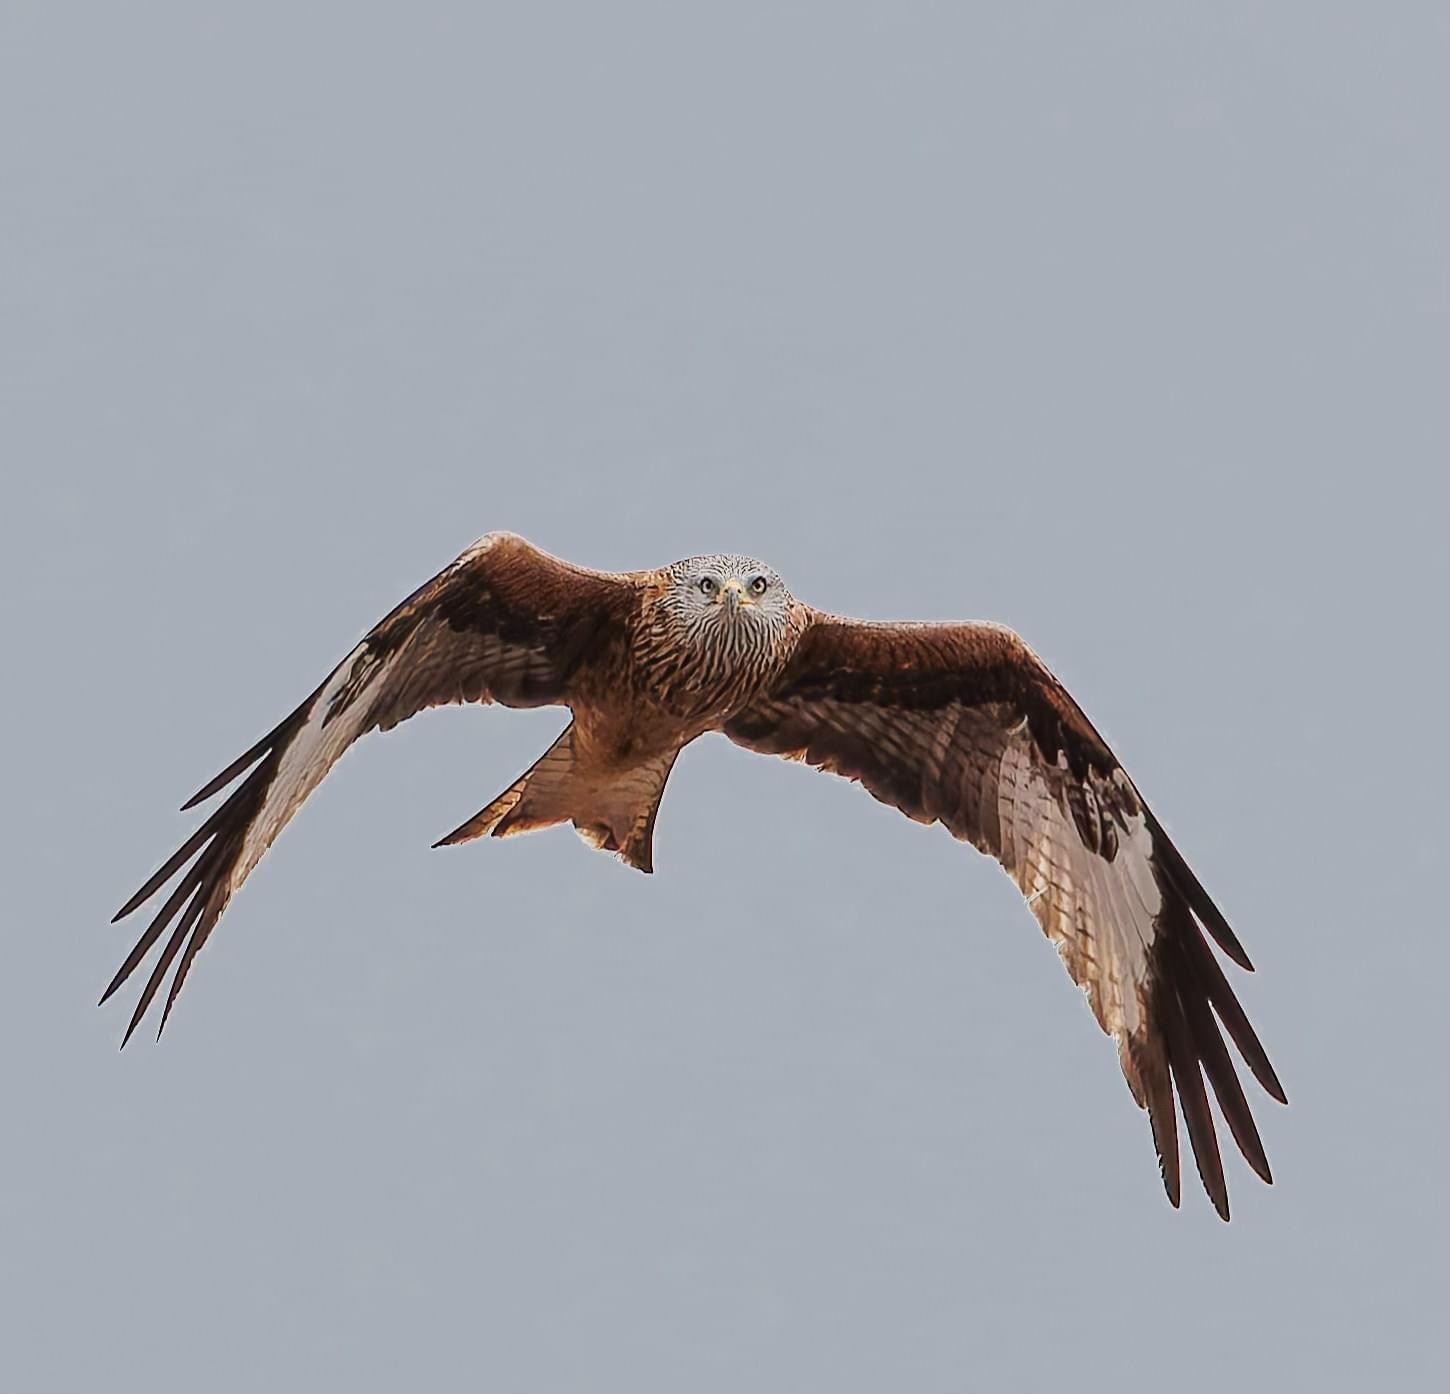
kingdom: Animalia
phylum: Chordata
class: Aves
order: Accipitriformes
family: Accipitridae
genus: Milvus
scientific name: Milvus milvus
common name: Red kite
